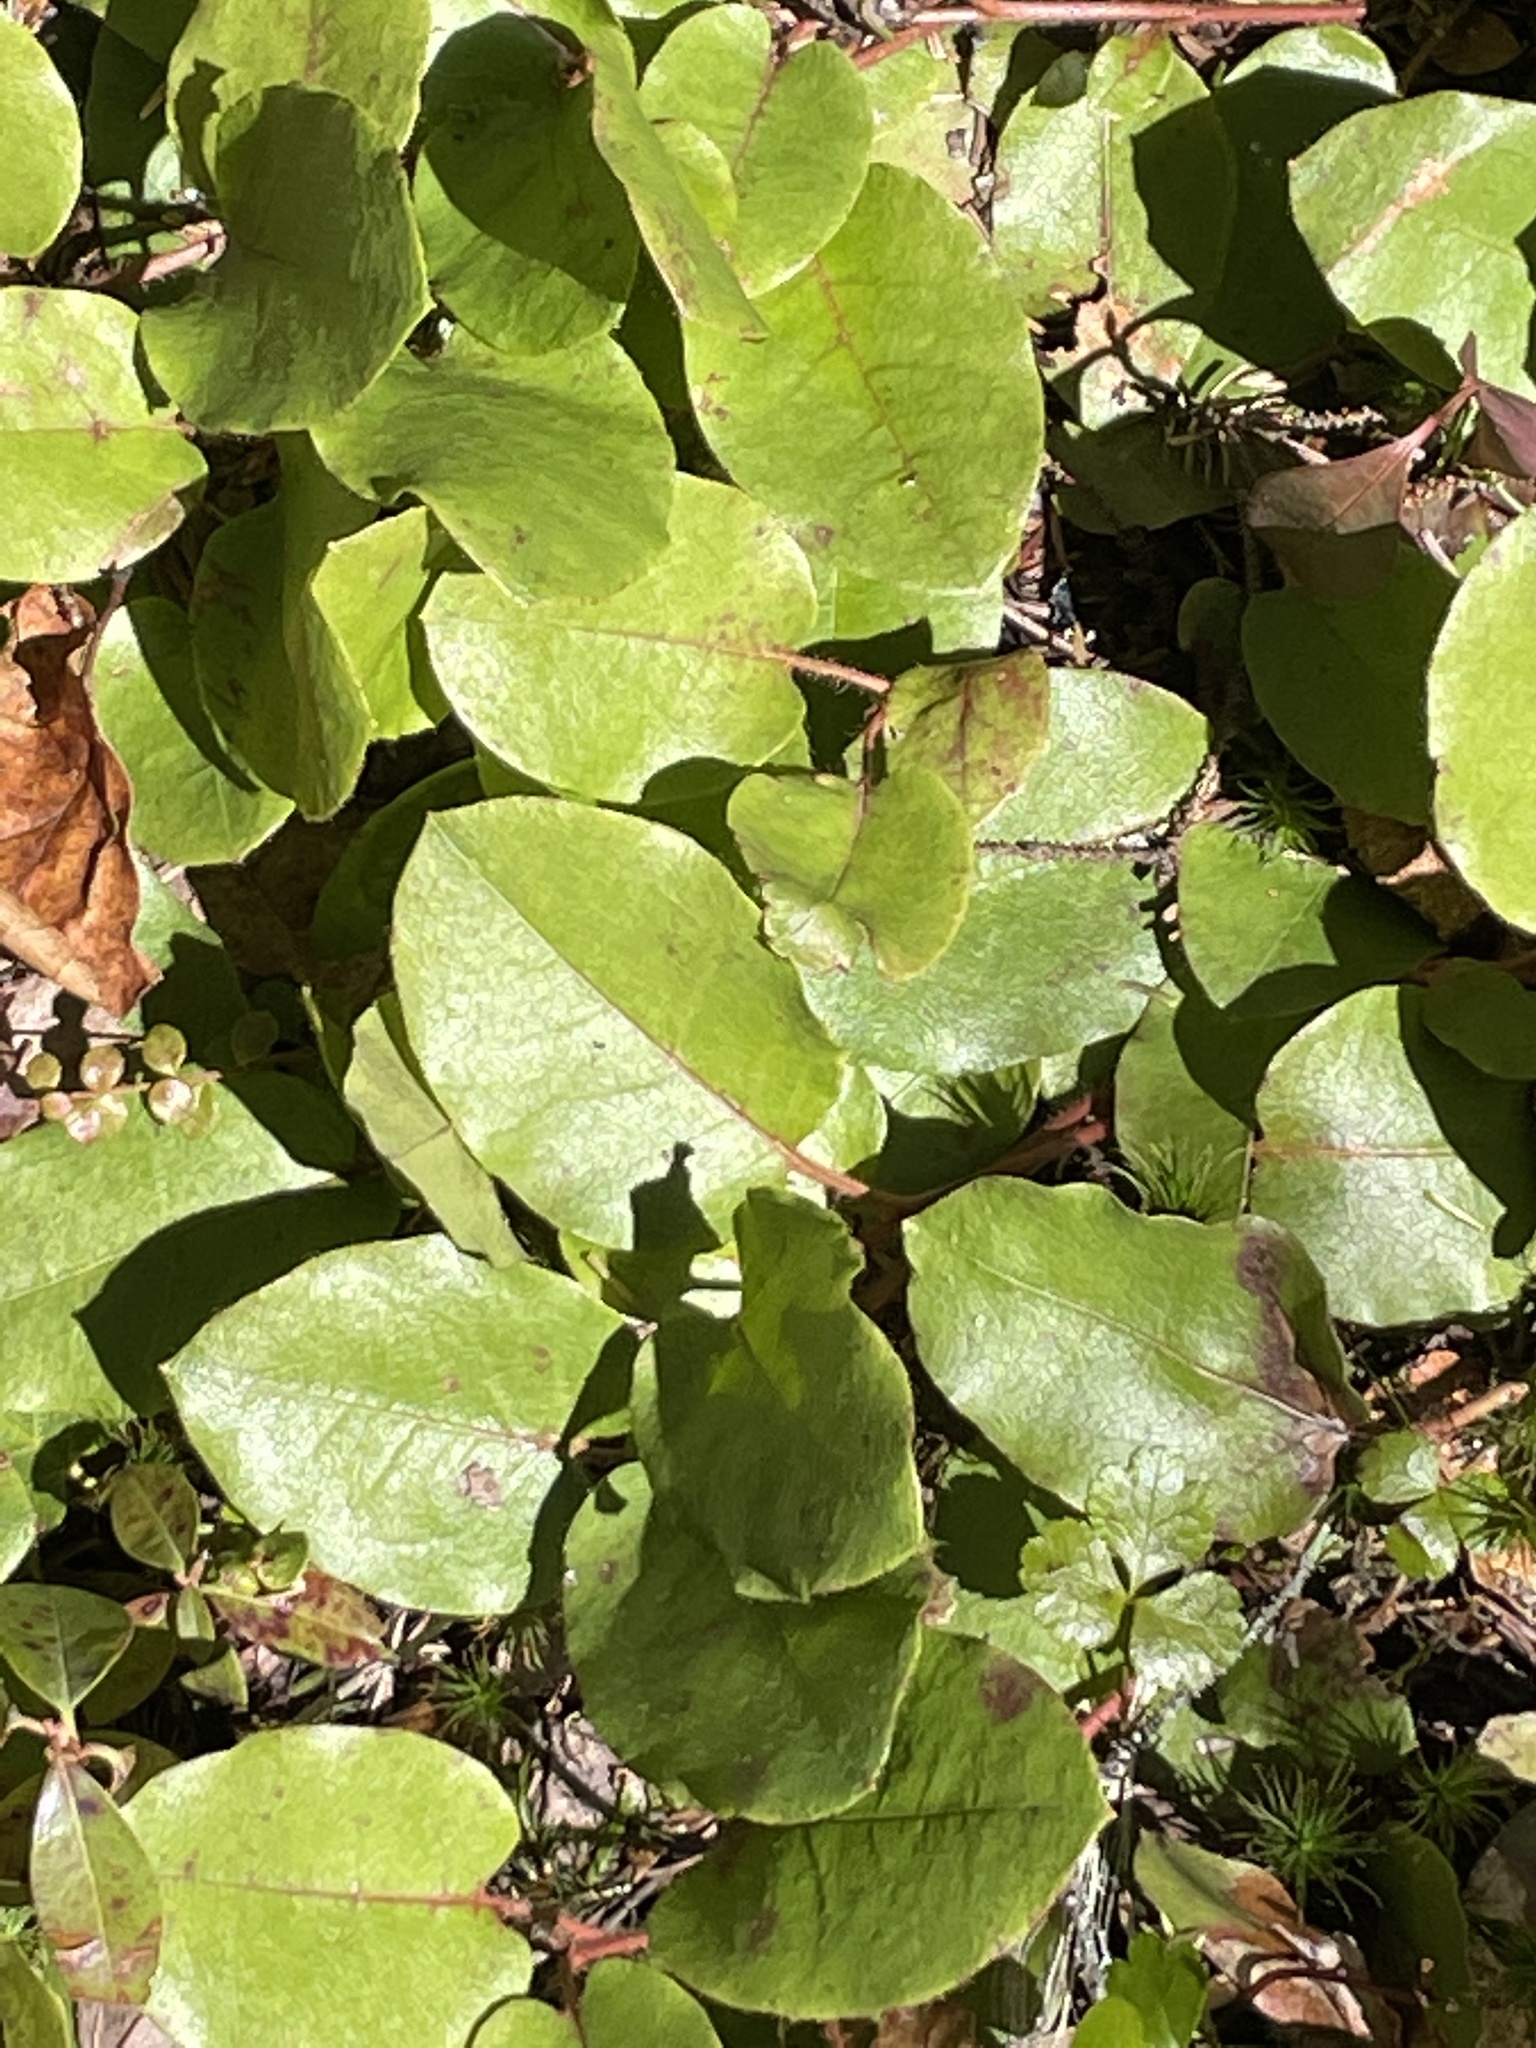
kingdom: Plantae
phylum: Tracheophyta
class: Magnoliopsida
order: Ericales
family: Ericaceae
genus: Epigaea
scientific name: Epigaea repens
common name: Gravelroot
